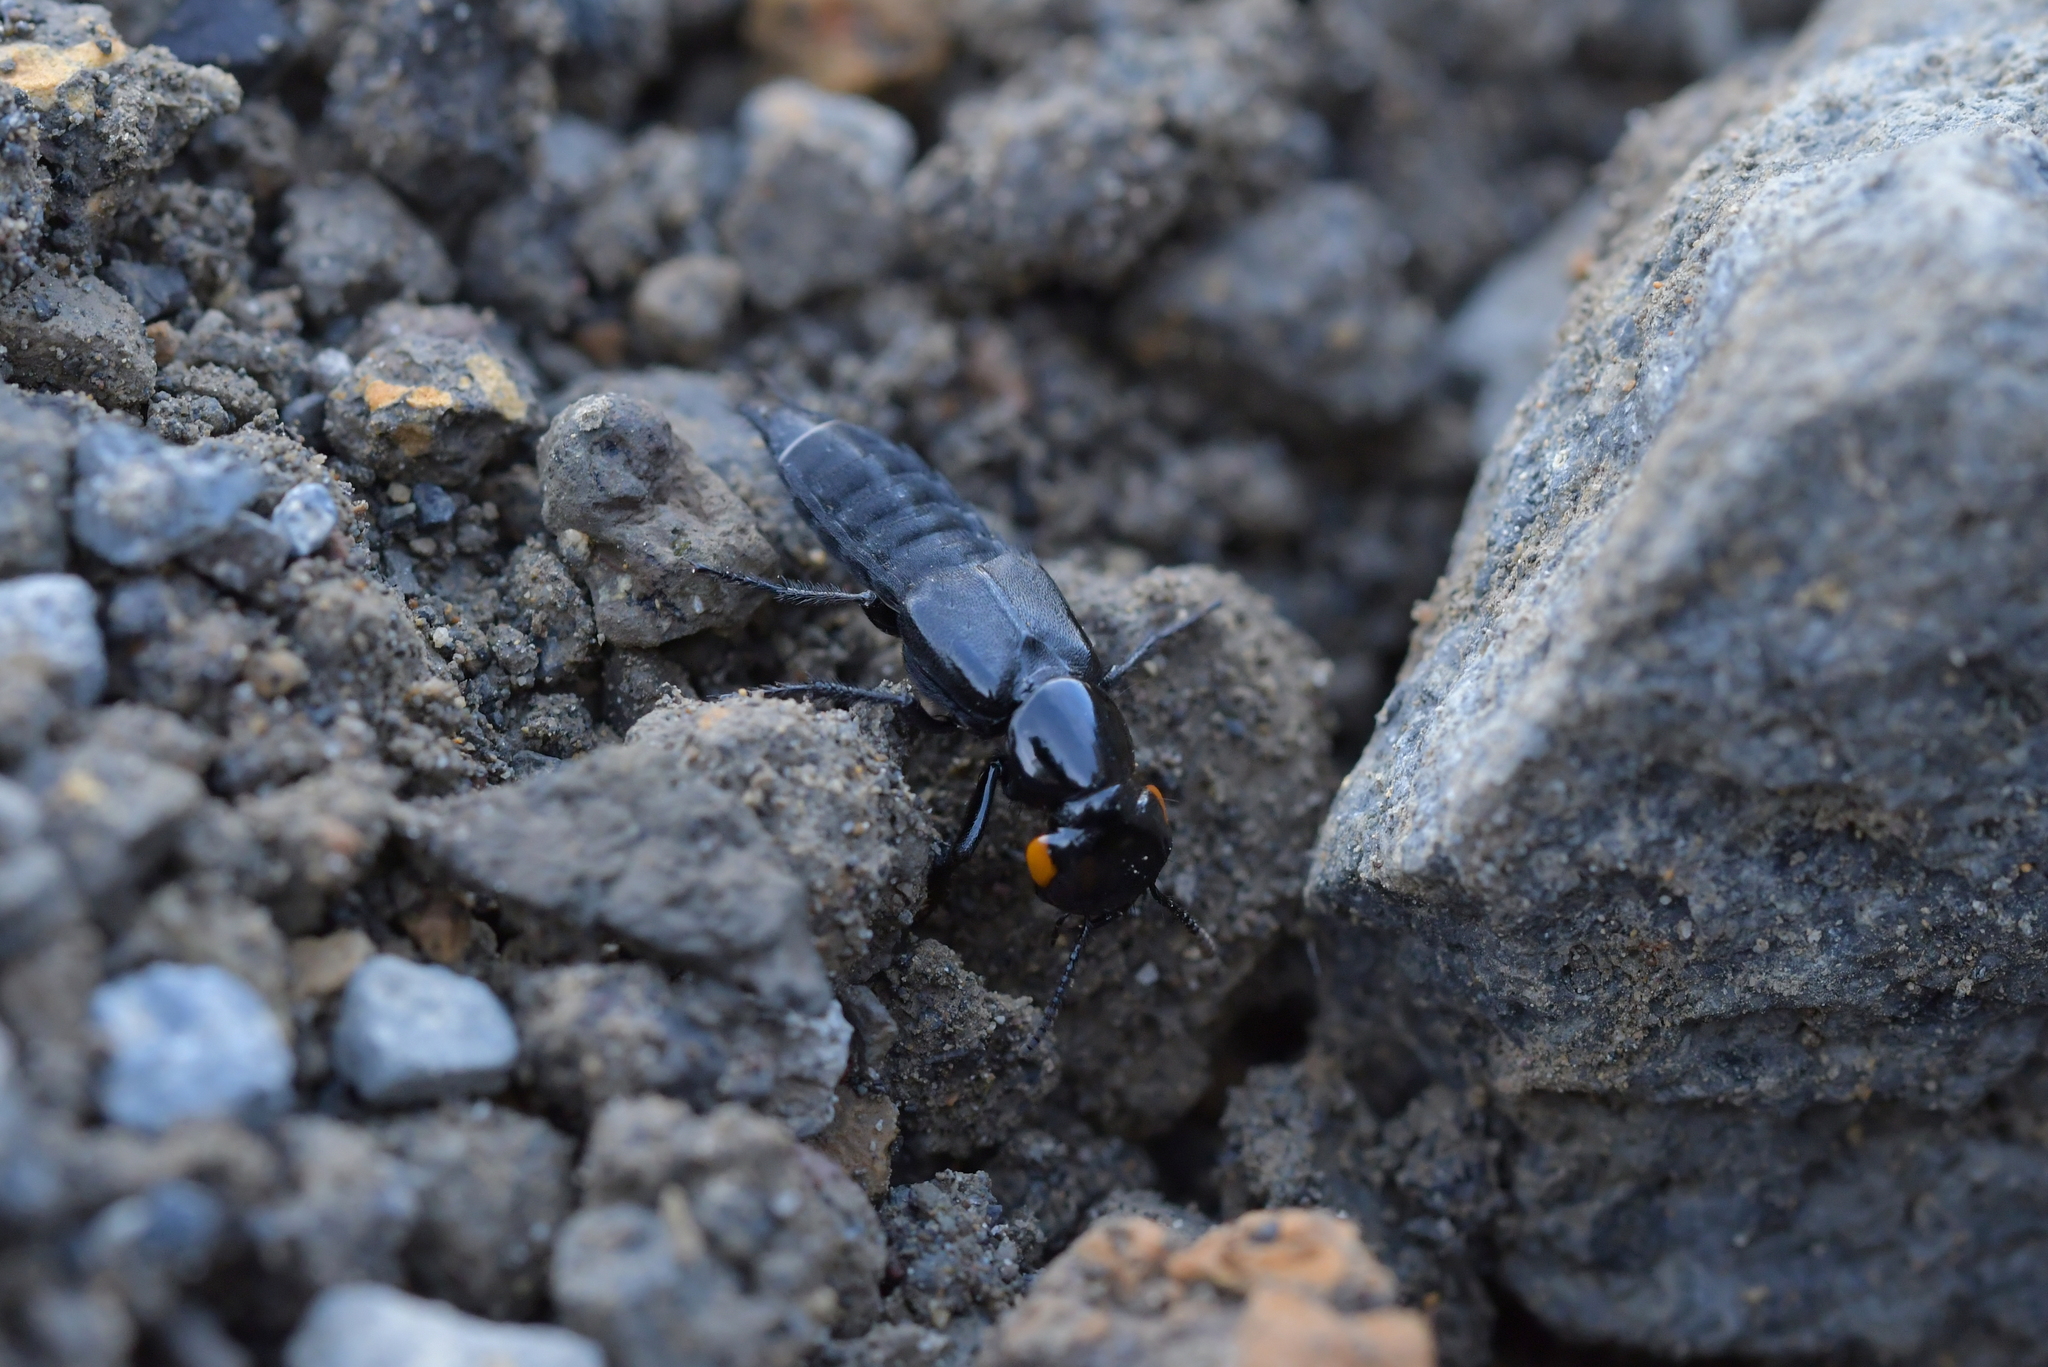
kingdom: Animalia
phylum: Arthropoda
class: Insecta
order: Coleoptera
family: Staphylinidae
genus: Creophilus
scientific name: Creophilus oculatus
